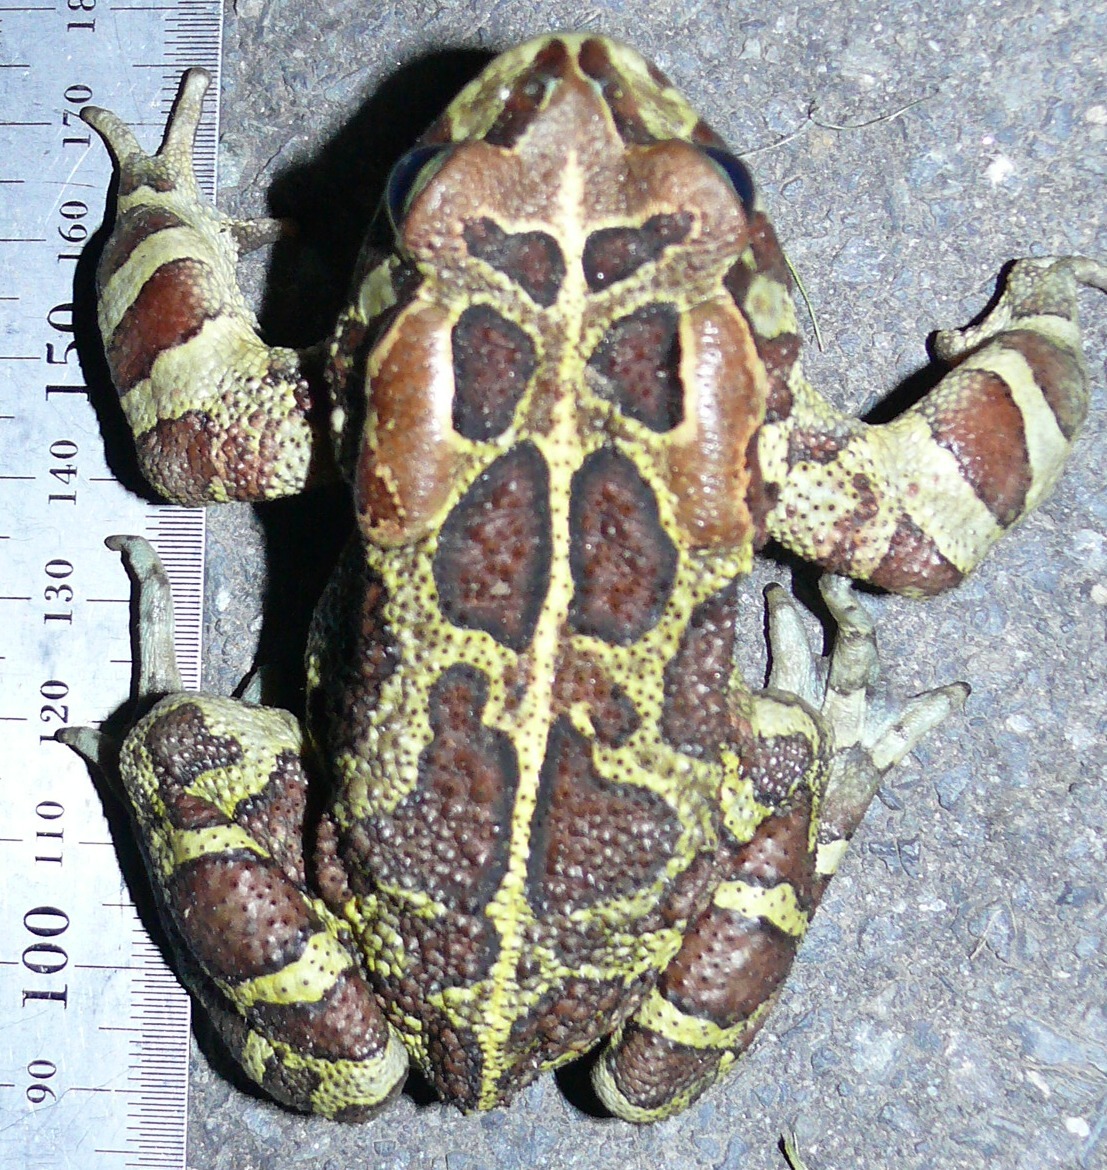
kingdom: Animalia
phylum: Chordata
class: Amphibia
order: Anura
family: Bufonidae
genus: Sclerophrys
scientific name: Sclerophrys pantherina
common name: Panther toad
